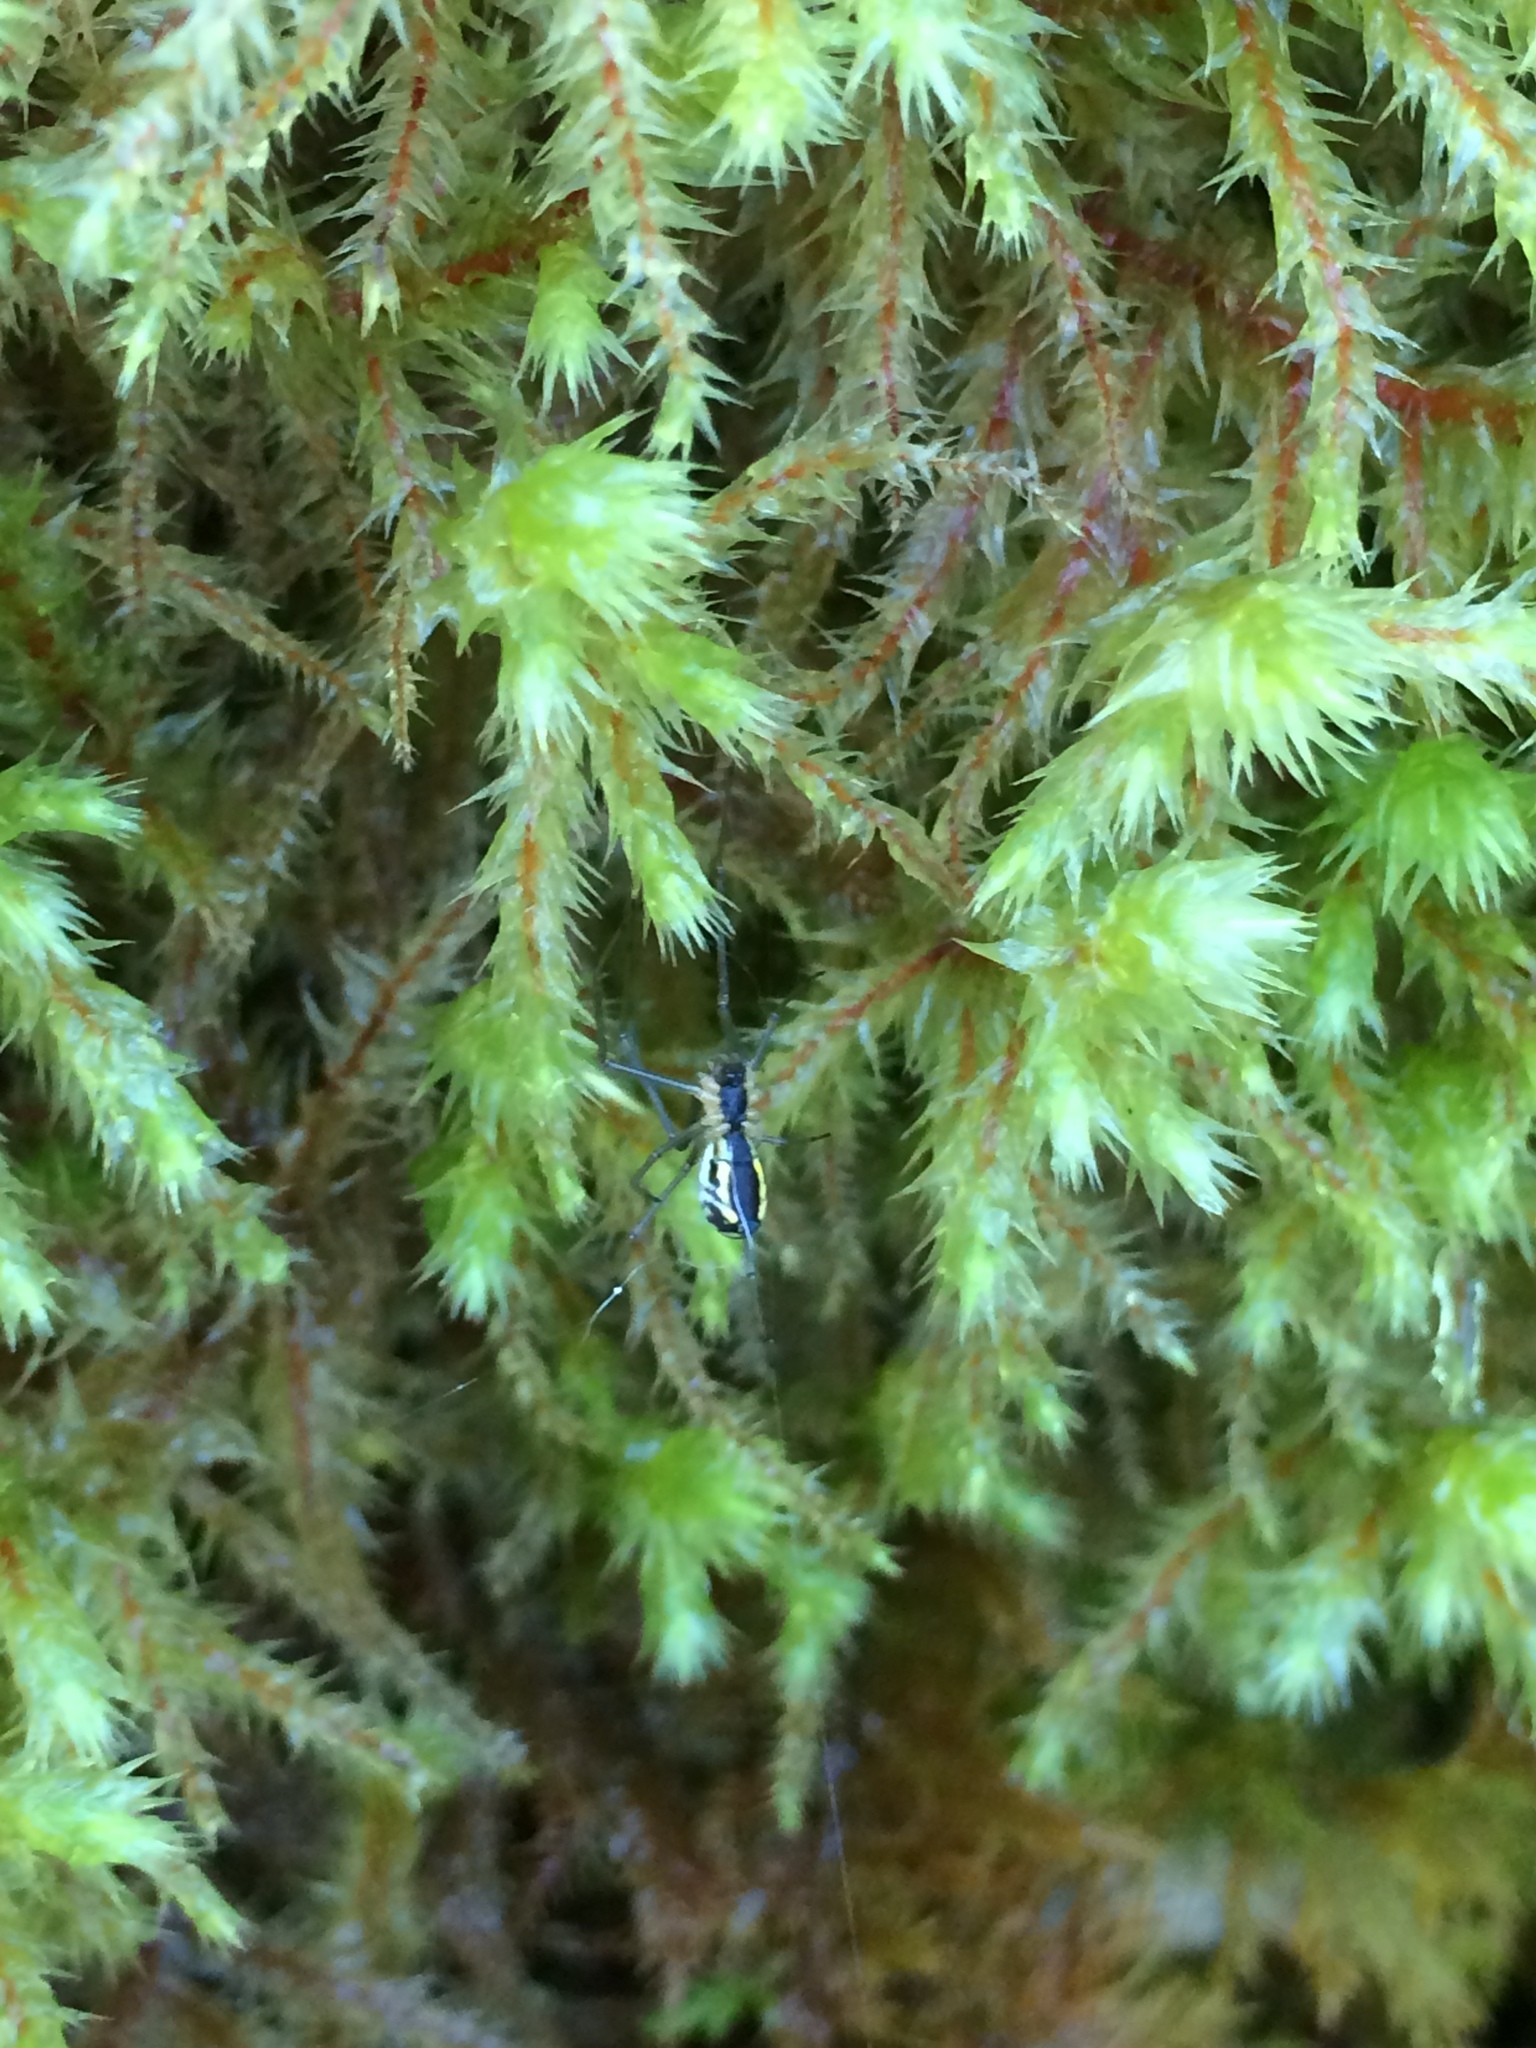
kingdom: Animalia
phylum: Arthropoda
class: Arachnida
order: Araneae
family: Linyphiidae
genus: Neriene
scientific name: Neriene radiata
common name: Filmy dome spider
